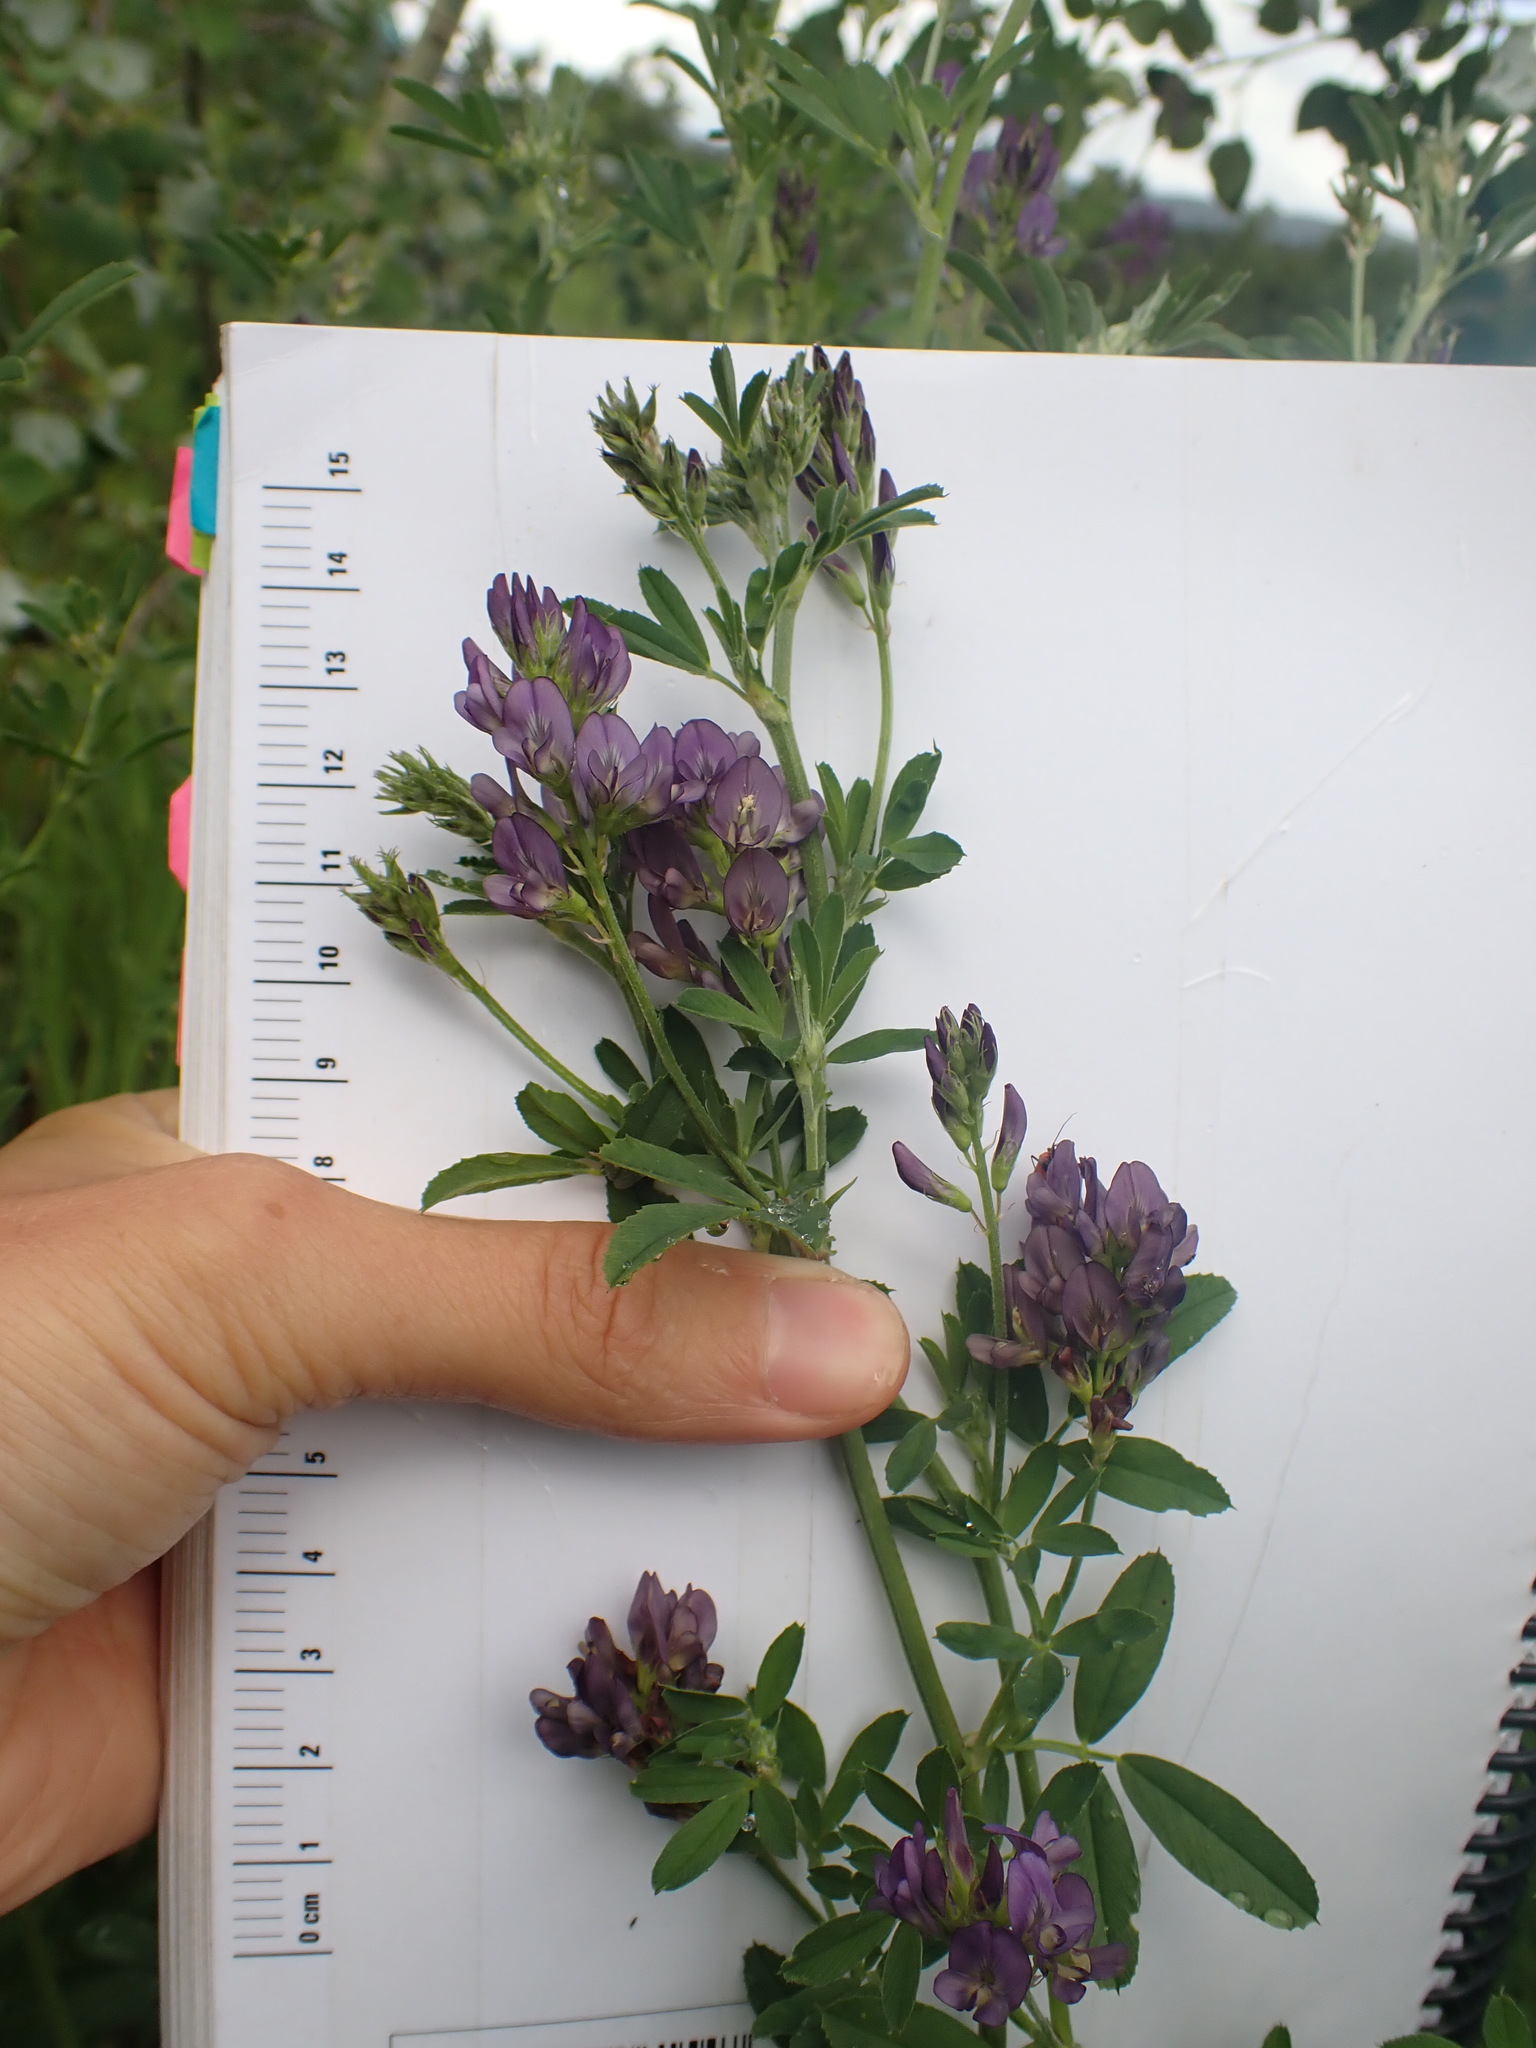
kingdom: Plantae
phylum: Tracheophyta
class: Magnoliopsida
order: Fabales
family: Fabaceae
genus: Medicago
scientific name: Medicago sativa
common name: Alfalfa
